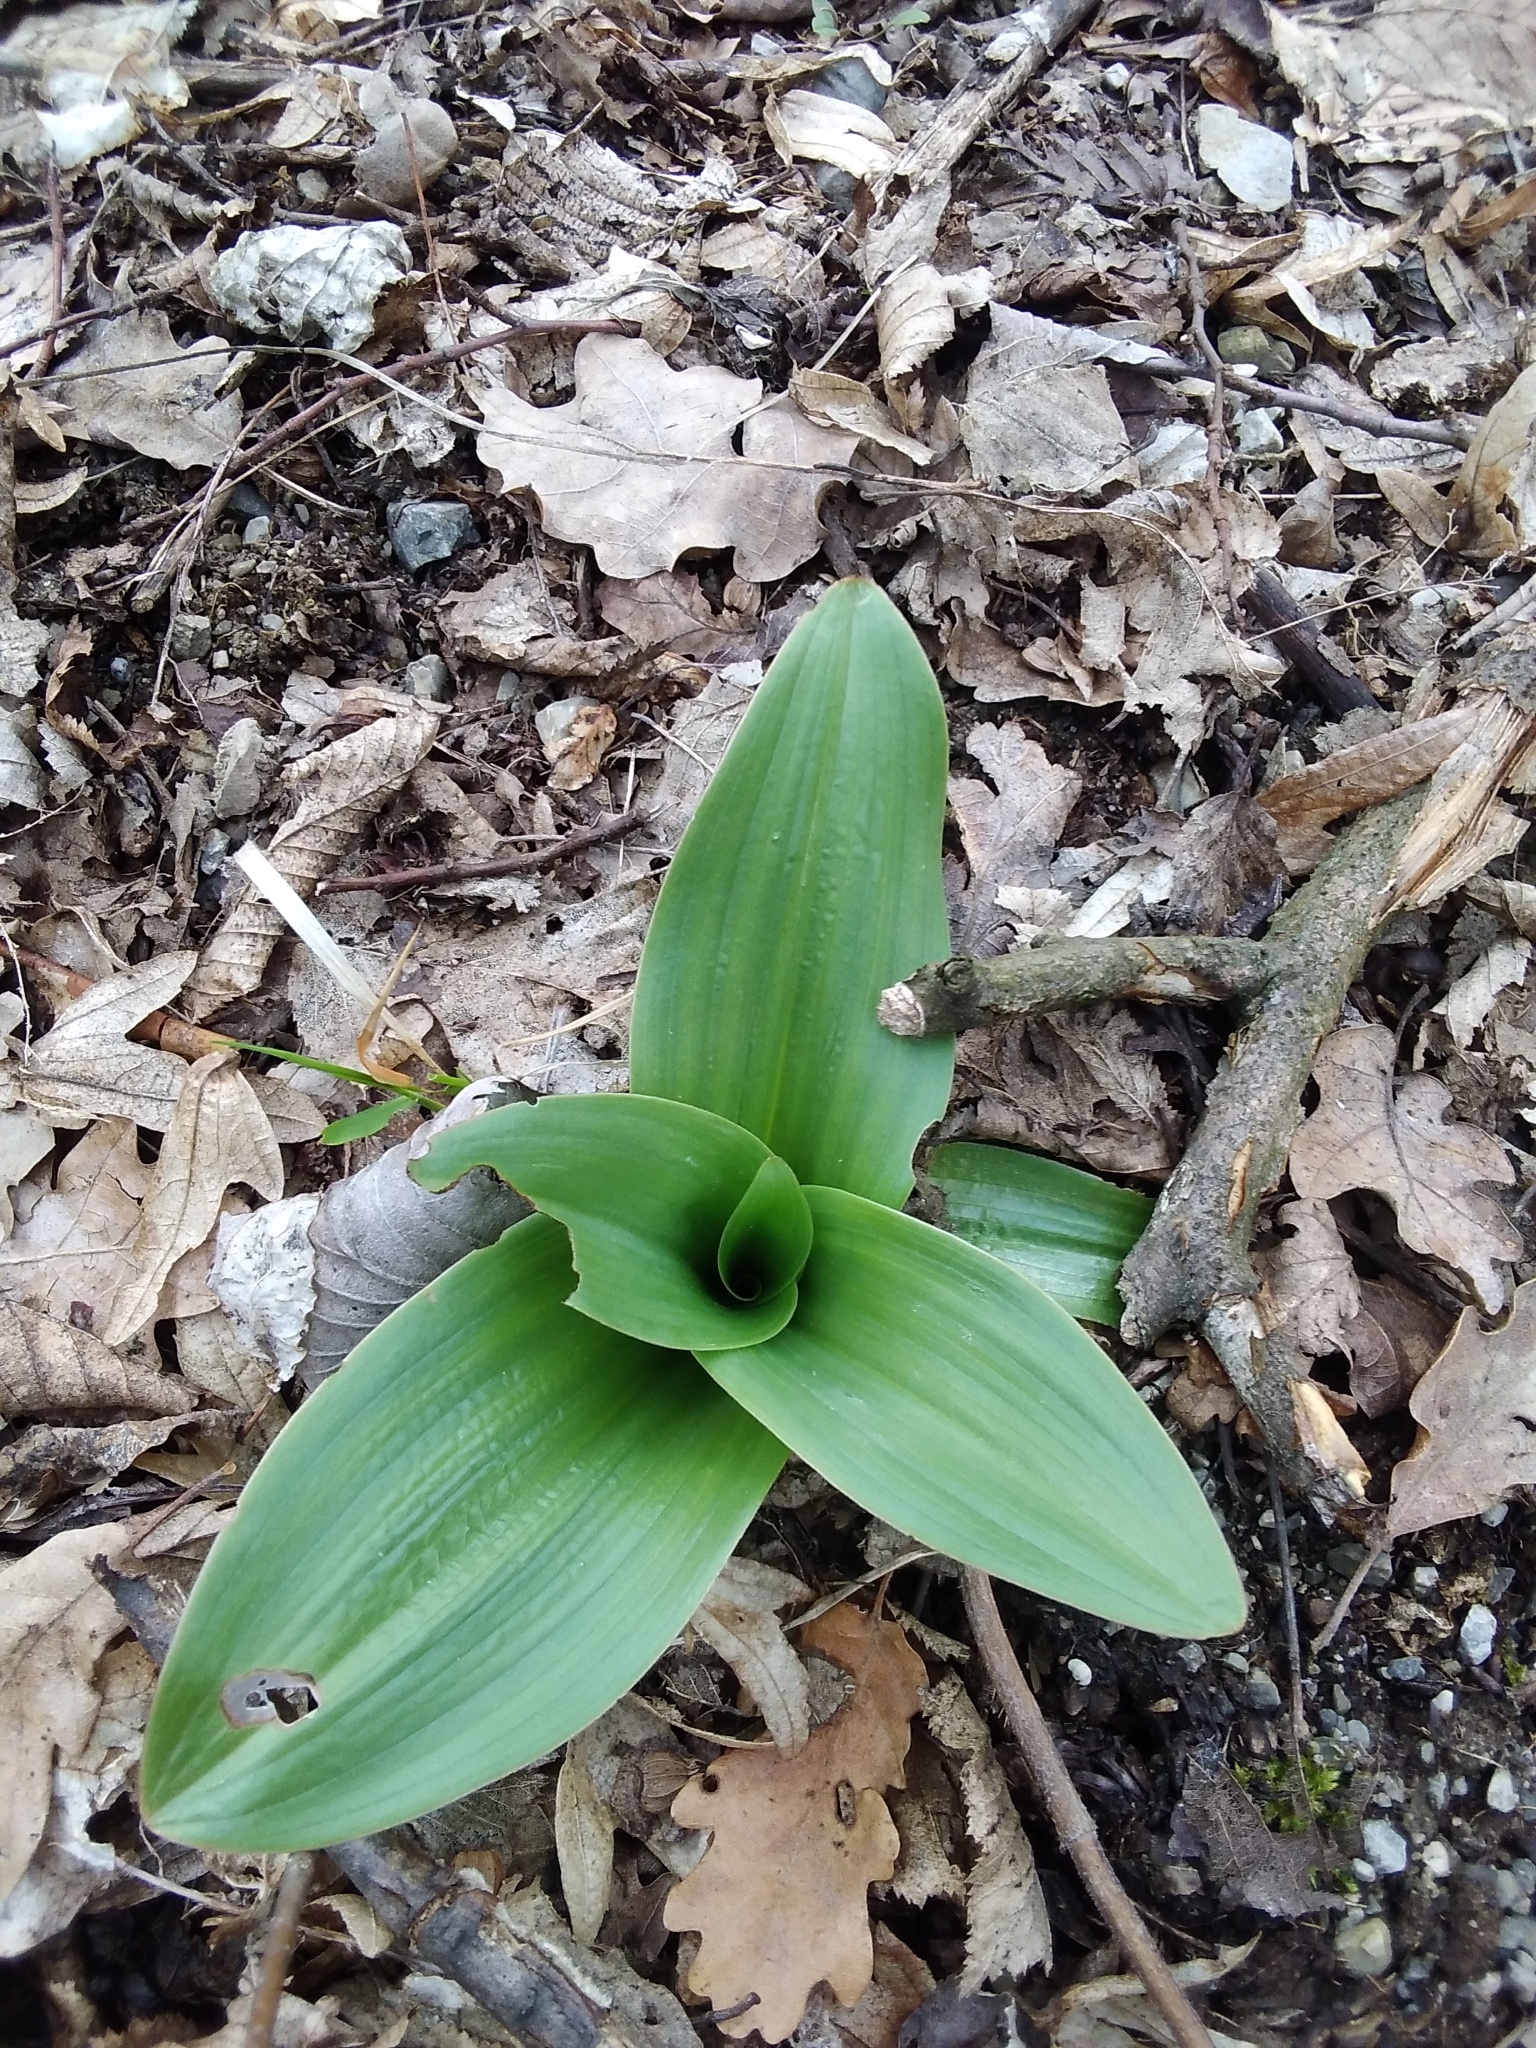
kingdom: Plantae
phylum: Tracheophyta
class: Liliopsida
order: Asparagales
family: Orchidaceae
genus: Orchis
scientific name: Orchis purpurea
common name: Lady orchid
